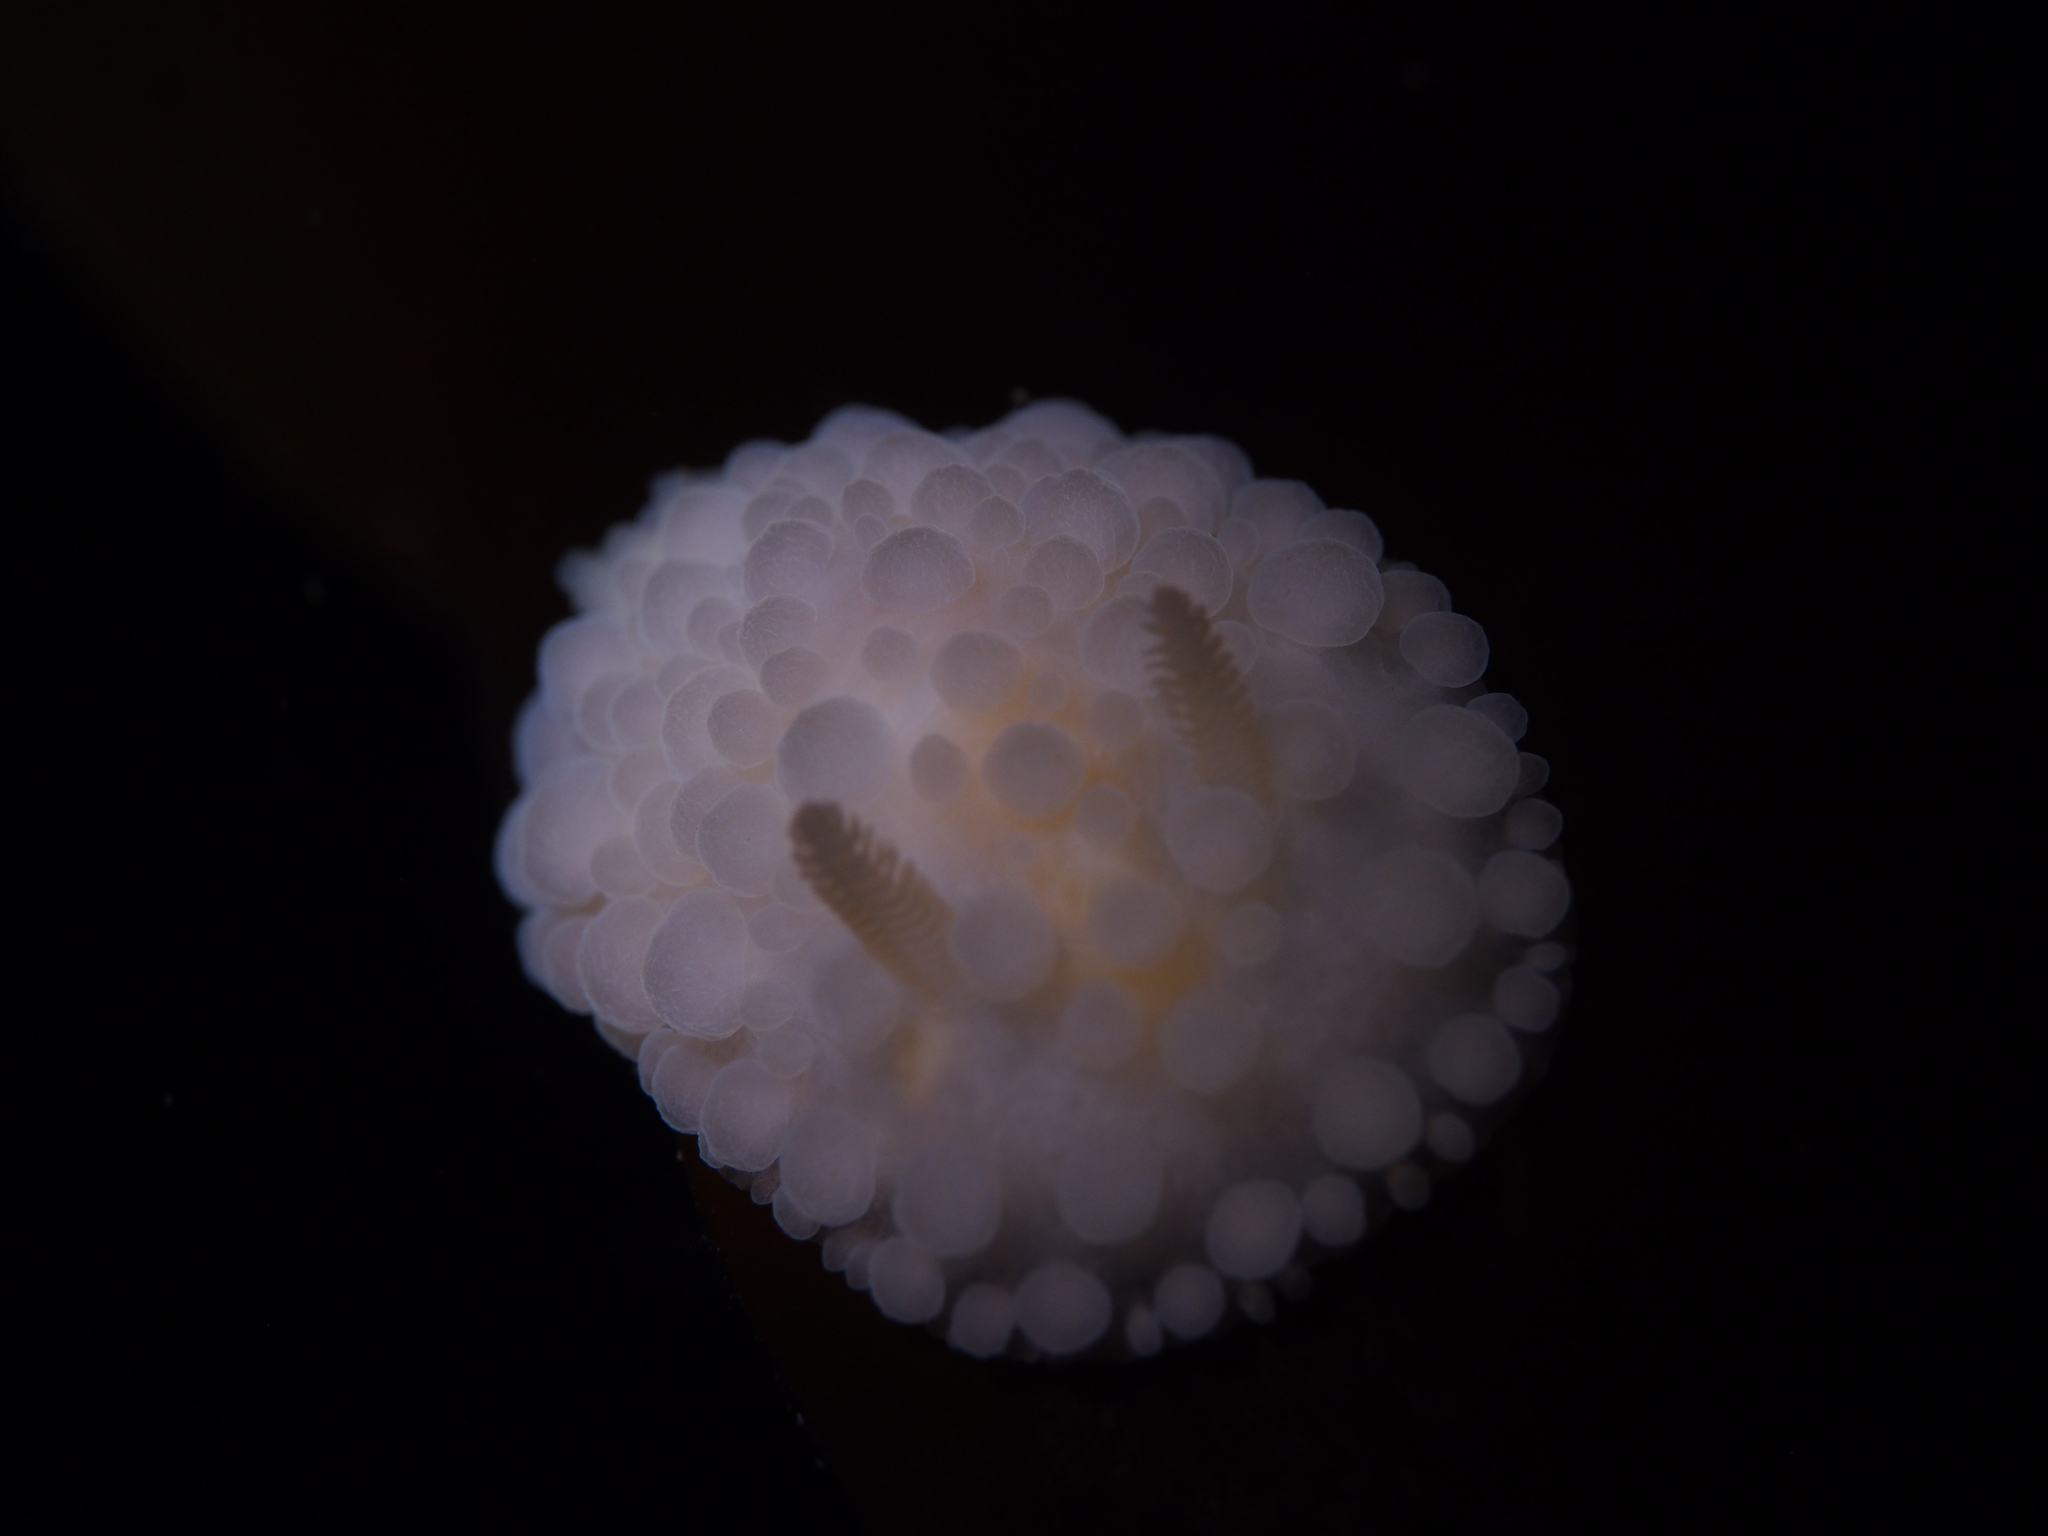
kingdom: Animalia
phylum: Mollusca
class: Gastropoda
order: Nudibranchia
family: Onchidorididae
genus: Adalaria
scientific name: Adalaria loveni
